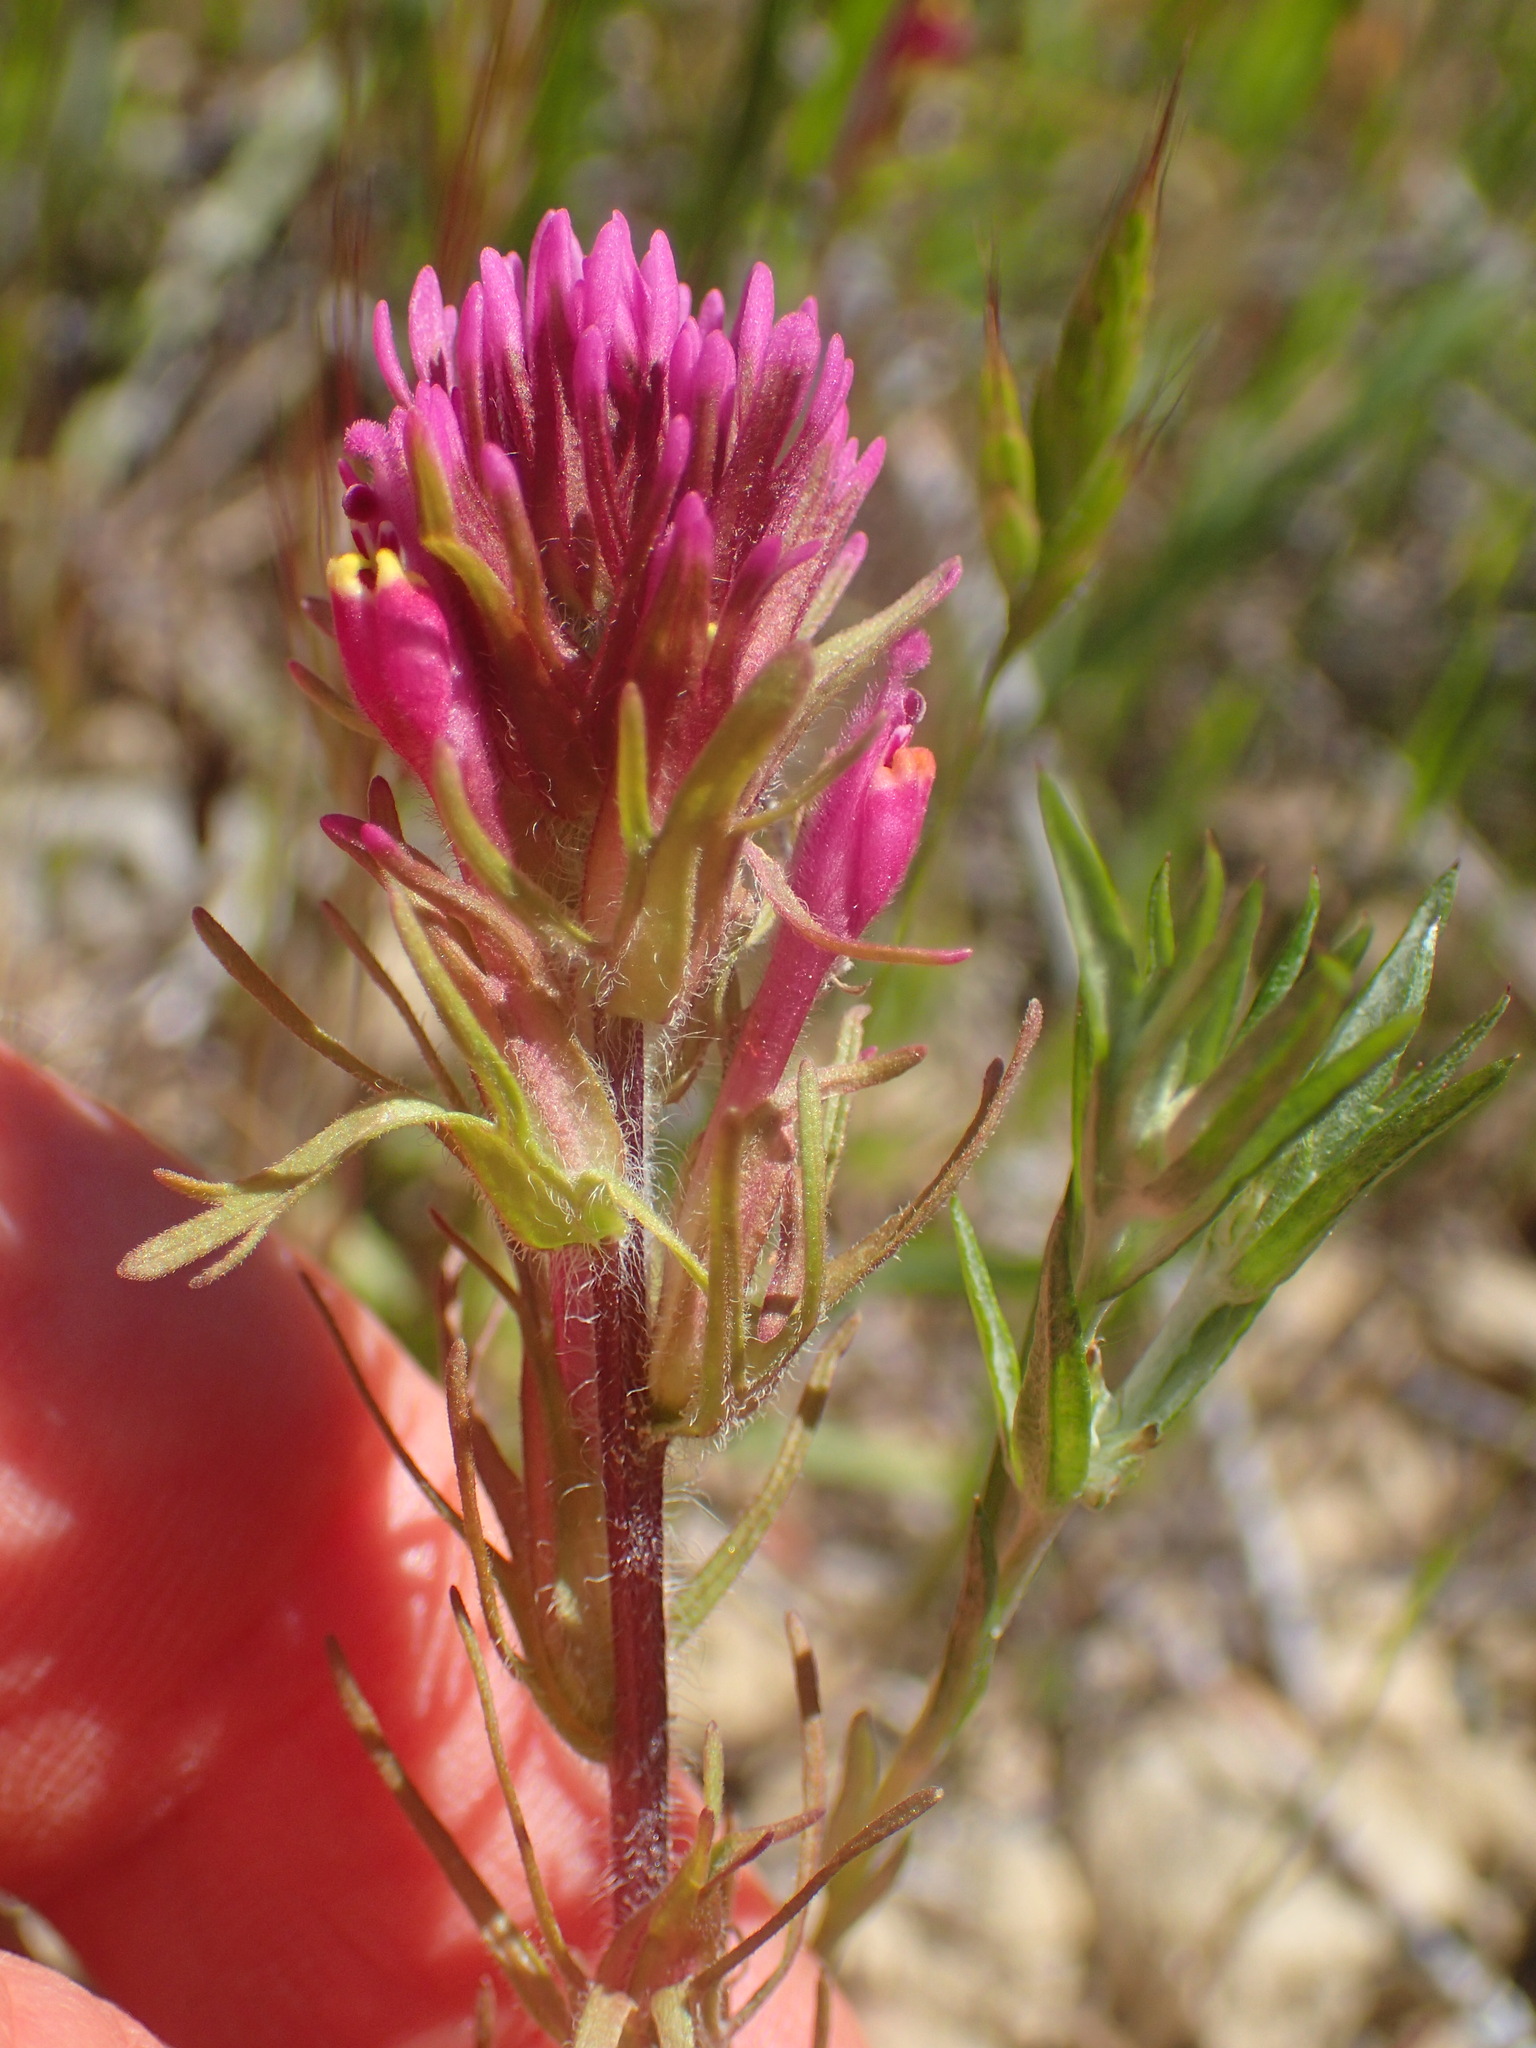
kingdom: Plantae
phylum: Tracheophyta
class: Magnoliopsida
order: Lamiales
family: Orobanchaceae
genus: Castilleja
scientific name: Castilleja exserta
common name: Purple owl-clover
